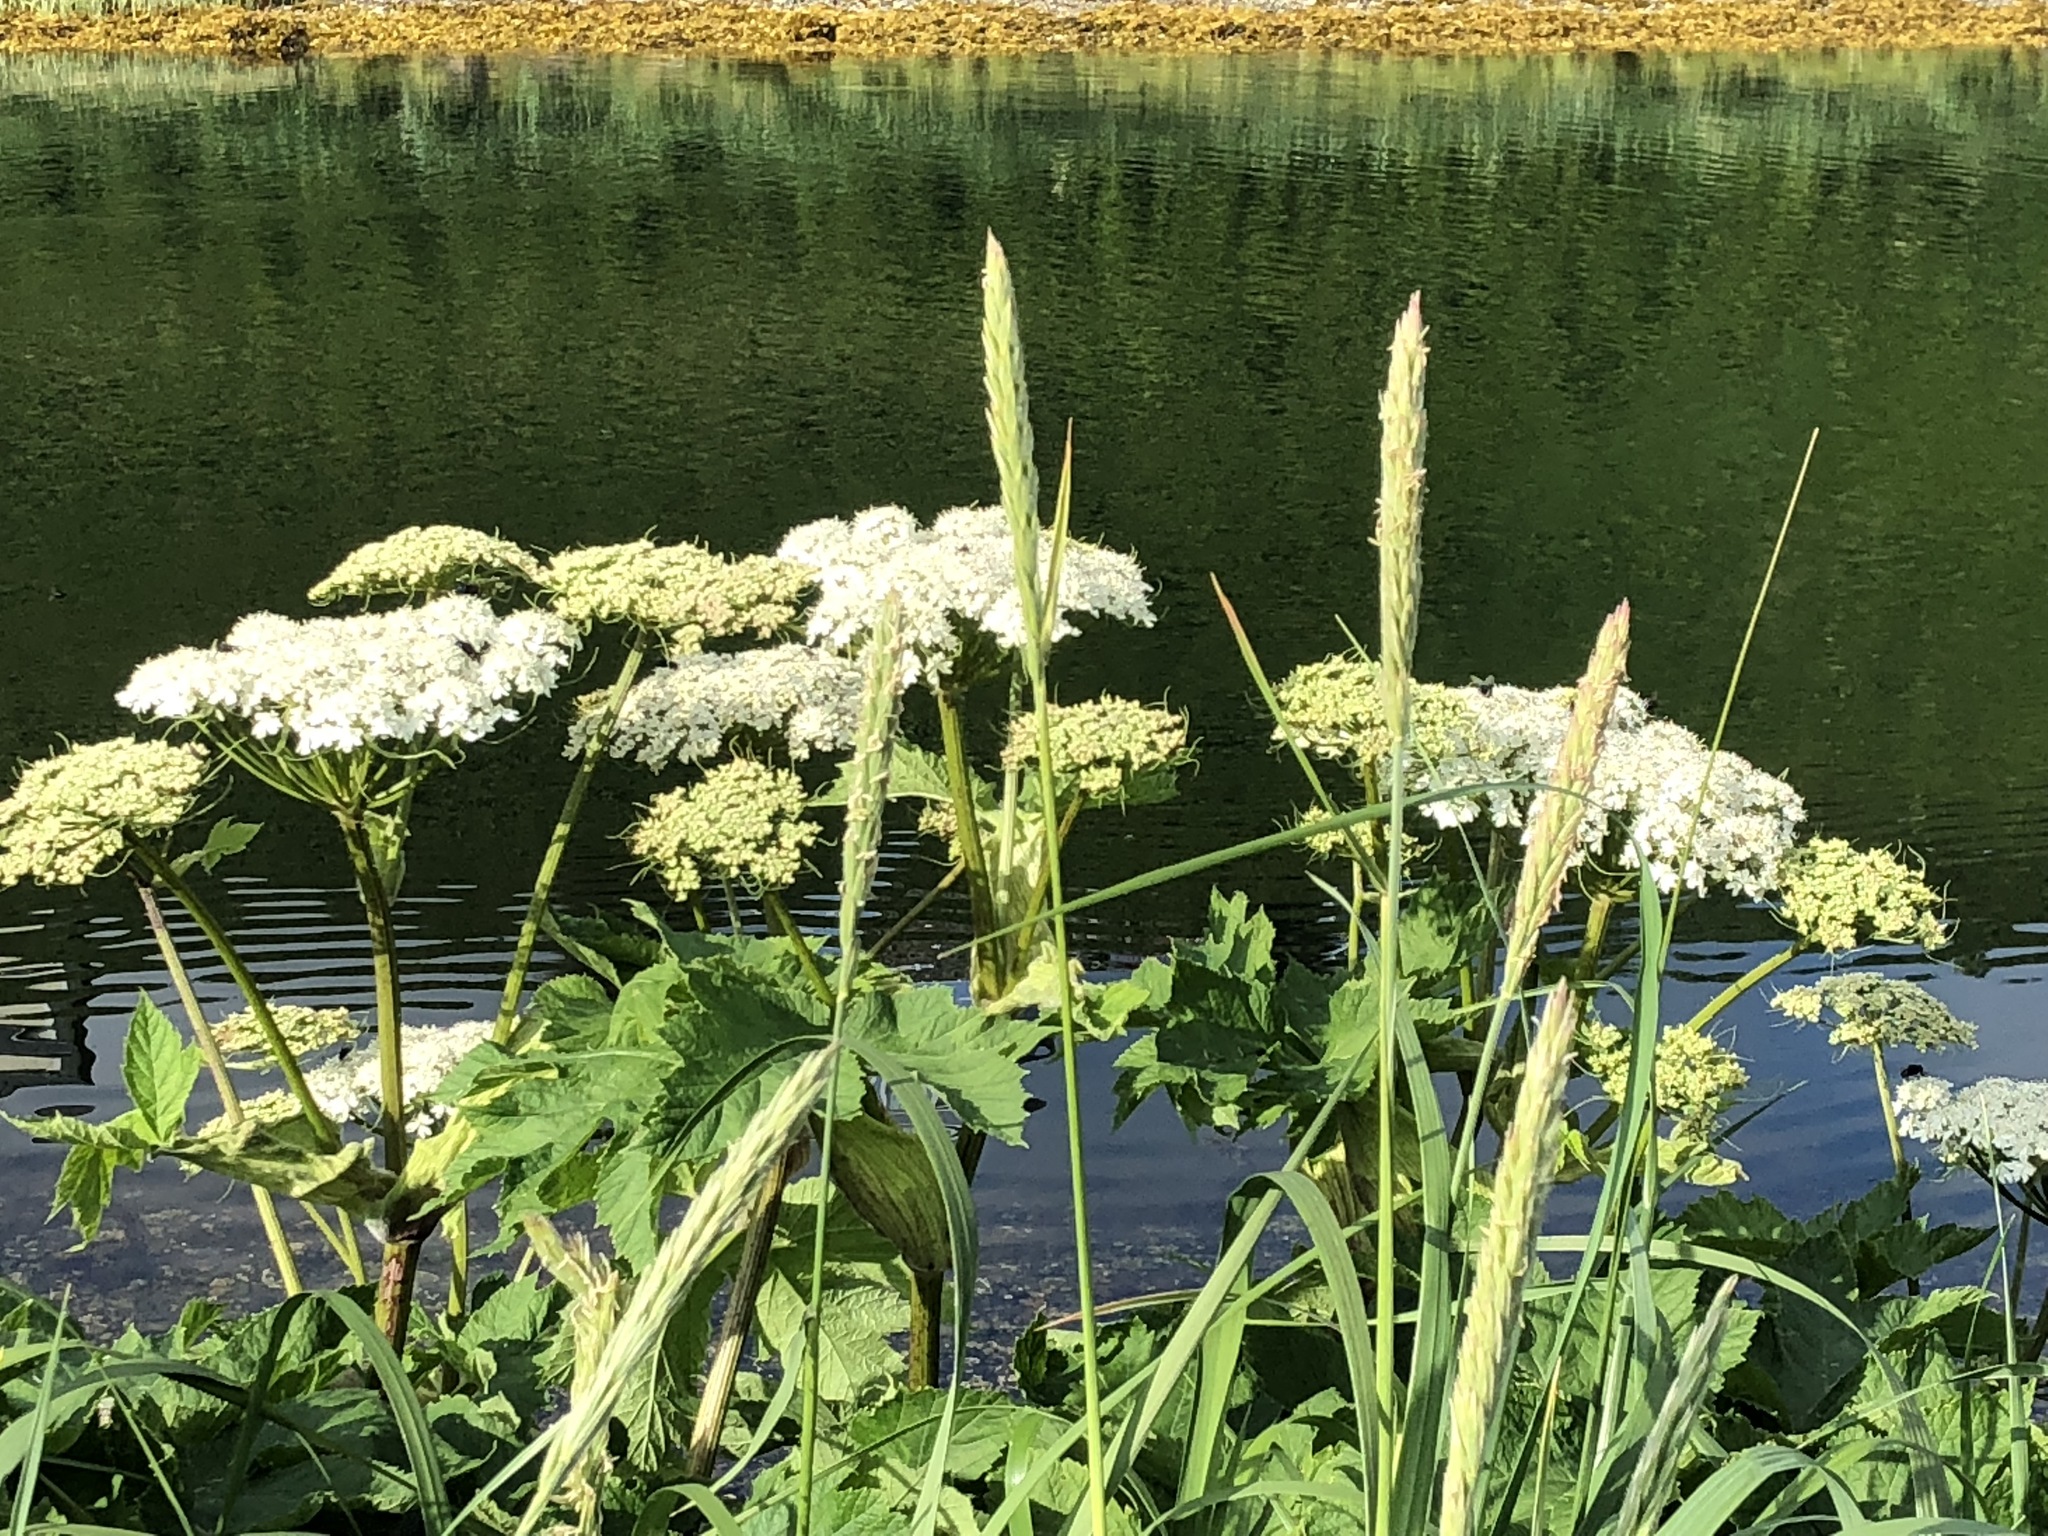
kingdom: Plantae
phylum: Tracheophyta
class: Magnoliopsida
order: Apiales
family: Apiaceae
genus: Heracleum
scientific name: Heracleum maximum
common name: American cow parsnip
